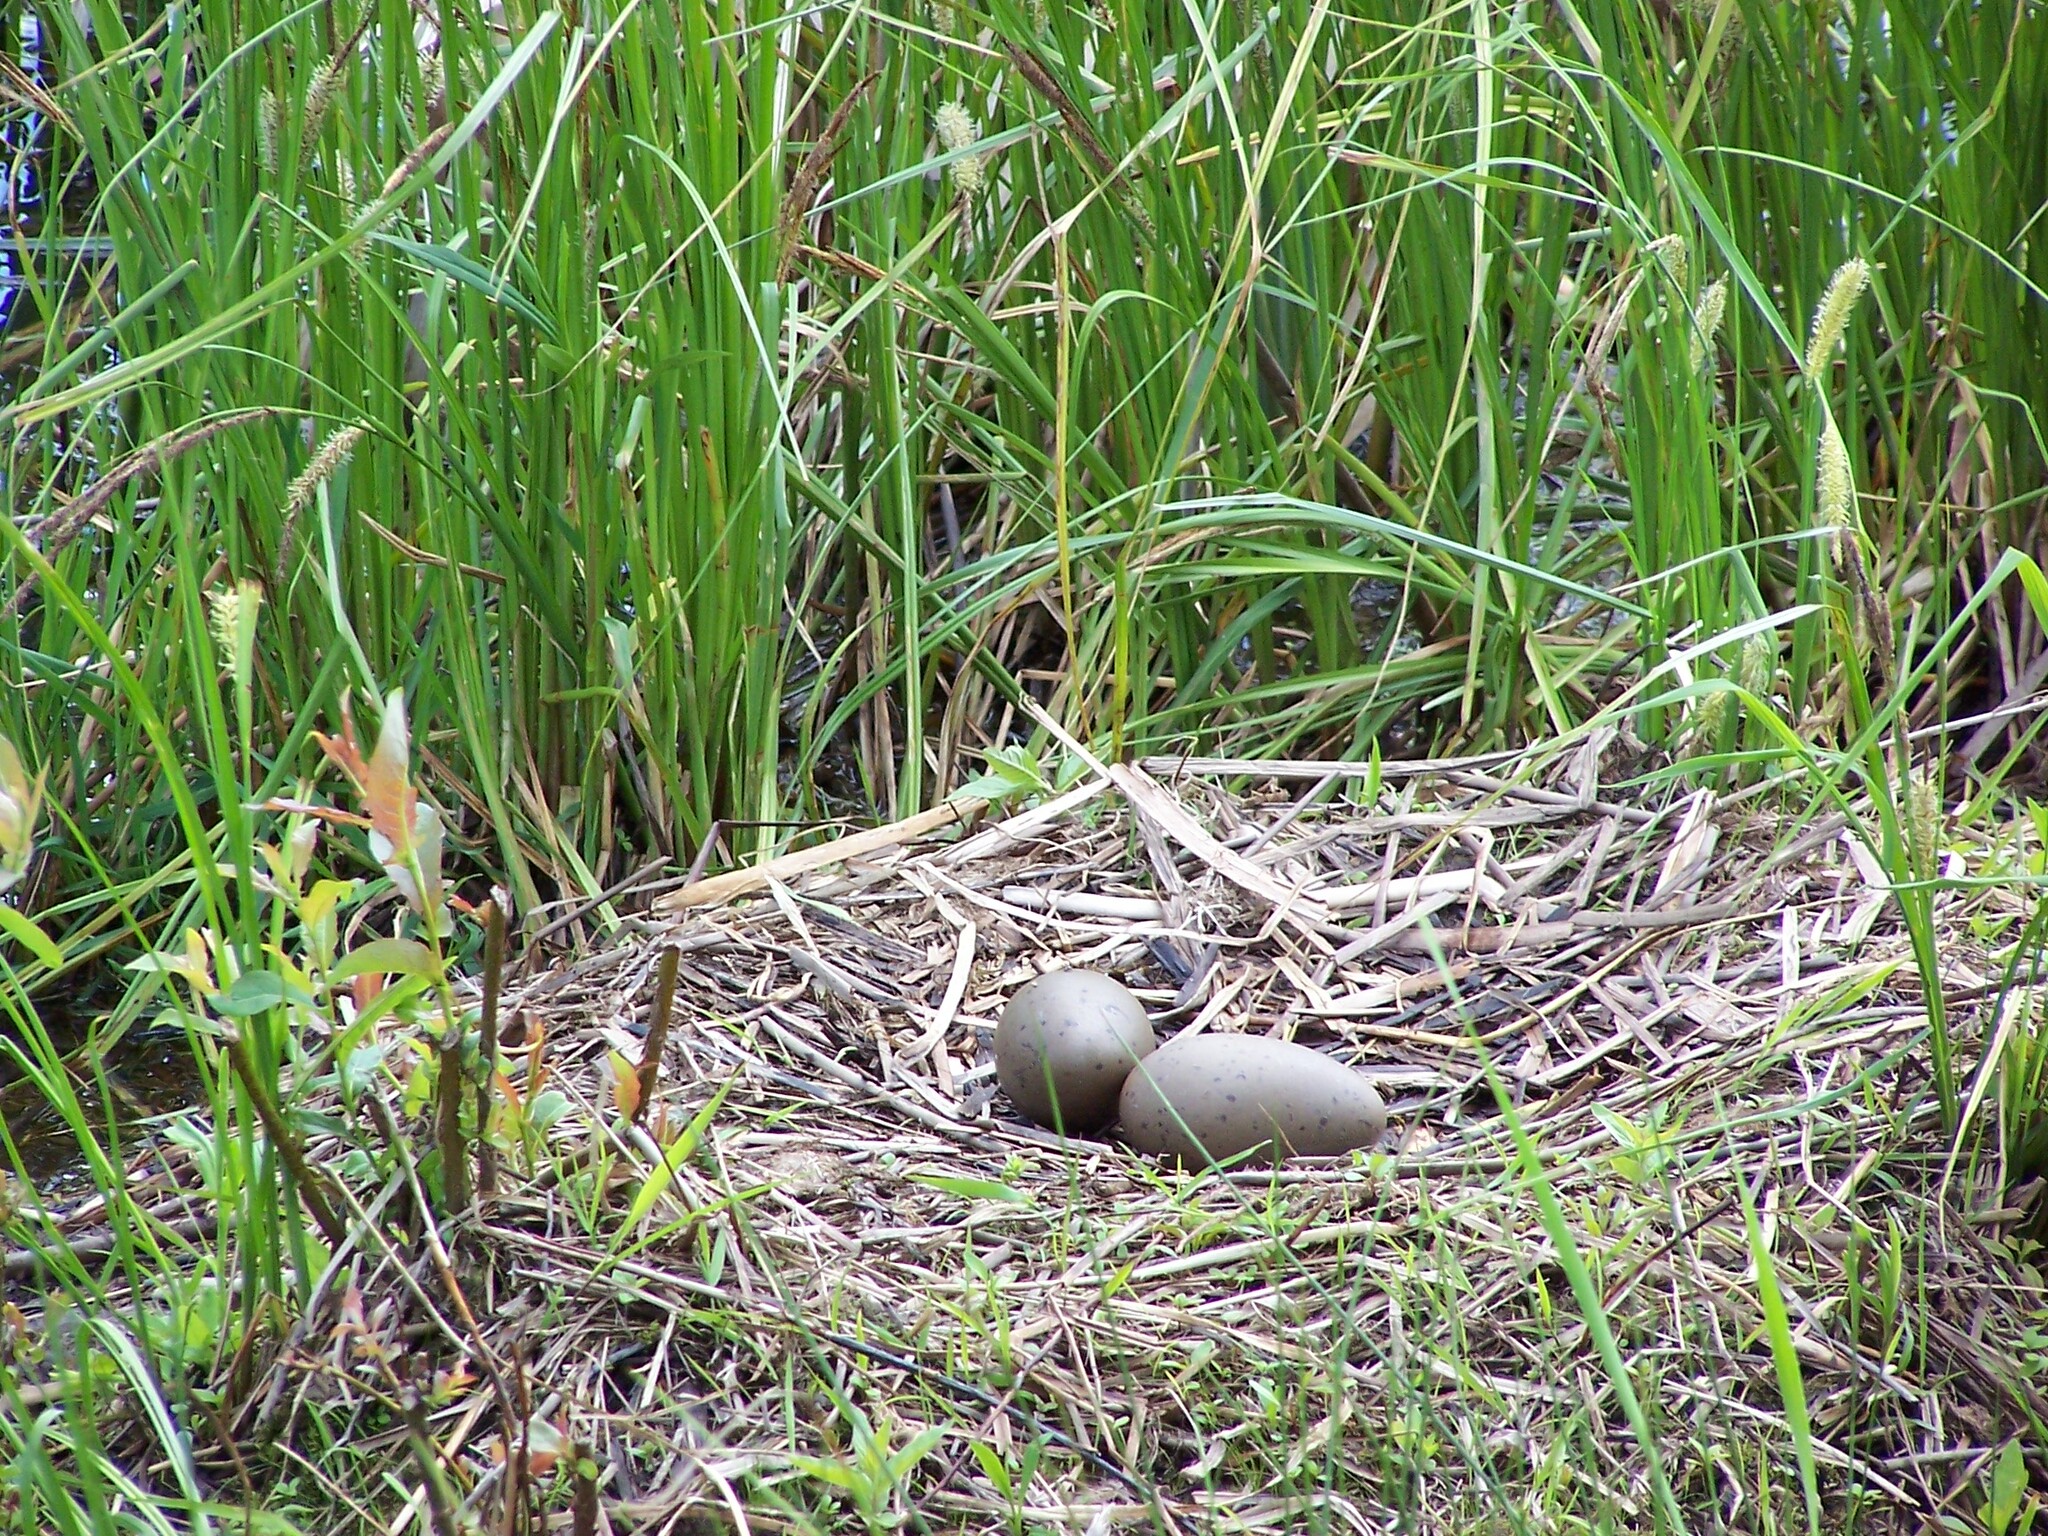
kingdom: Animalia
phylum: Chordata
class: Aves
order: Gaviiformes
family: Gaviidae
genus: Gavia
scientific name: Gavia immer
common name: Common loon
